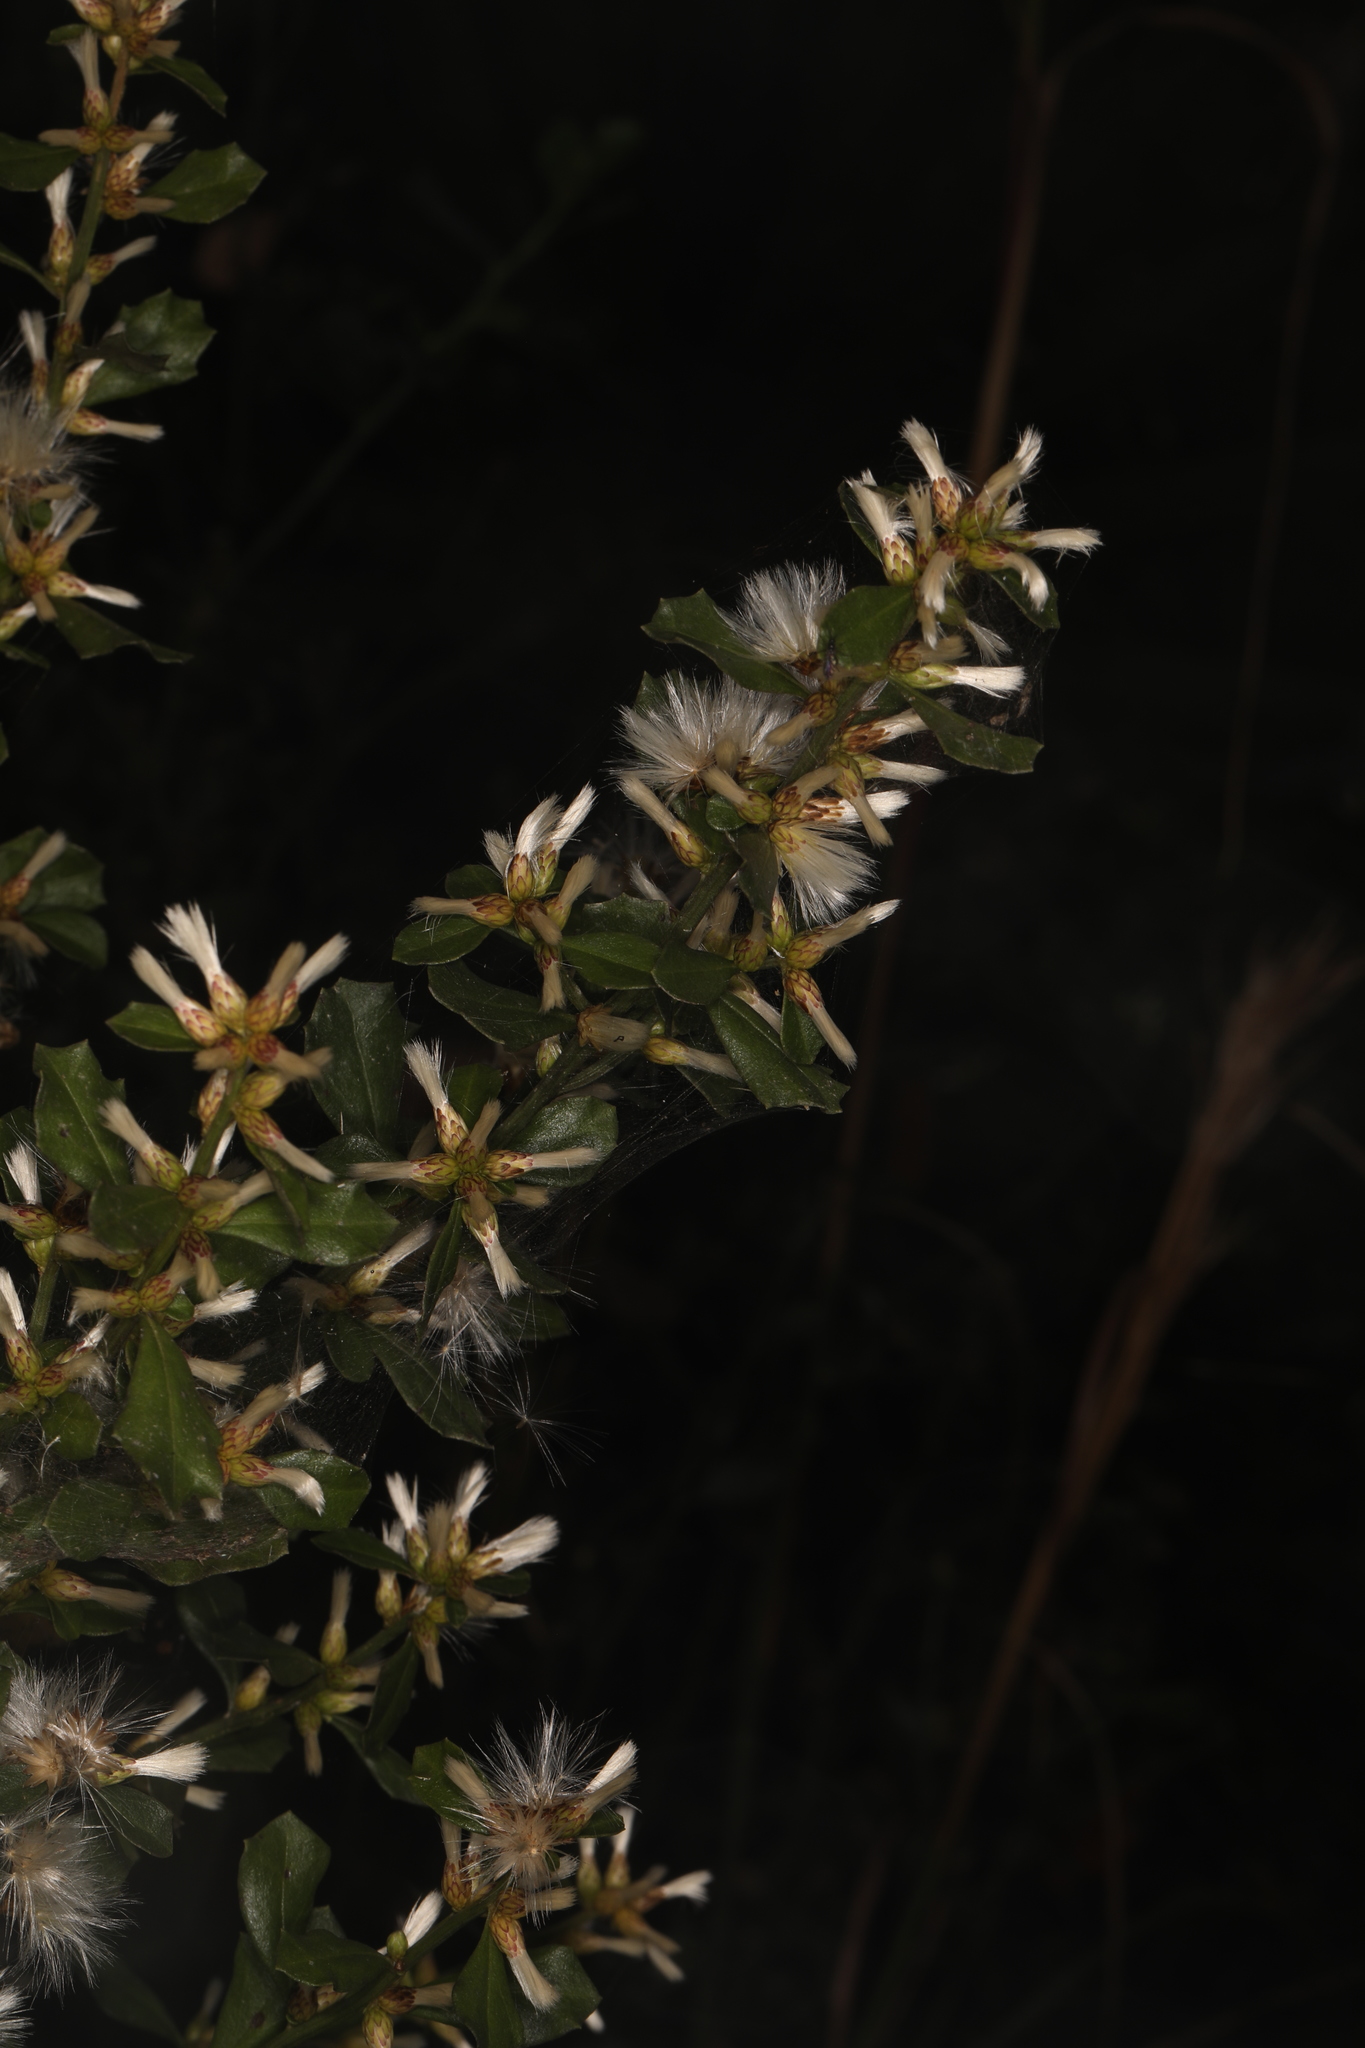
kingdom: Plantae
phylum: Tracheophyta
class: Magnoliopsida
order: Asterales
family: Asteraceae
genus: Baccharis
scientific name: Baccharis glomeruliflora
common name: Silverling groundsel bush
